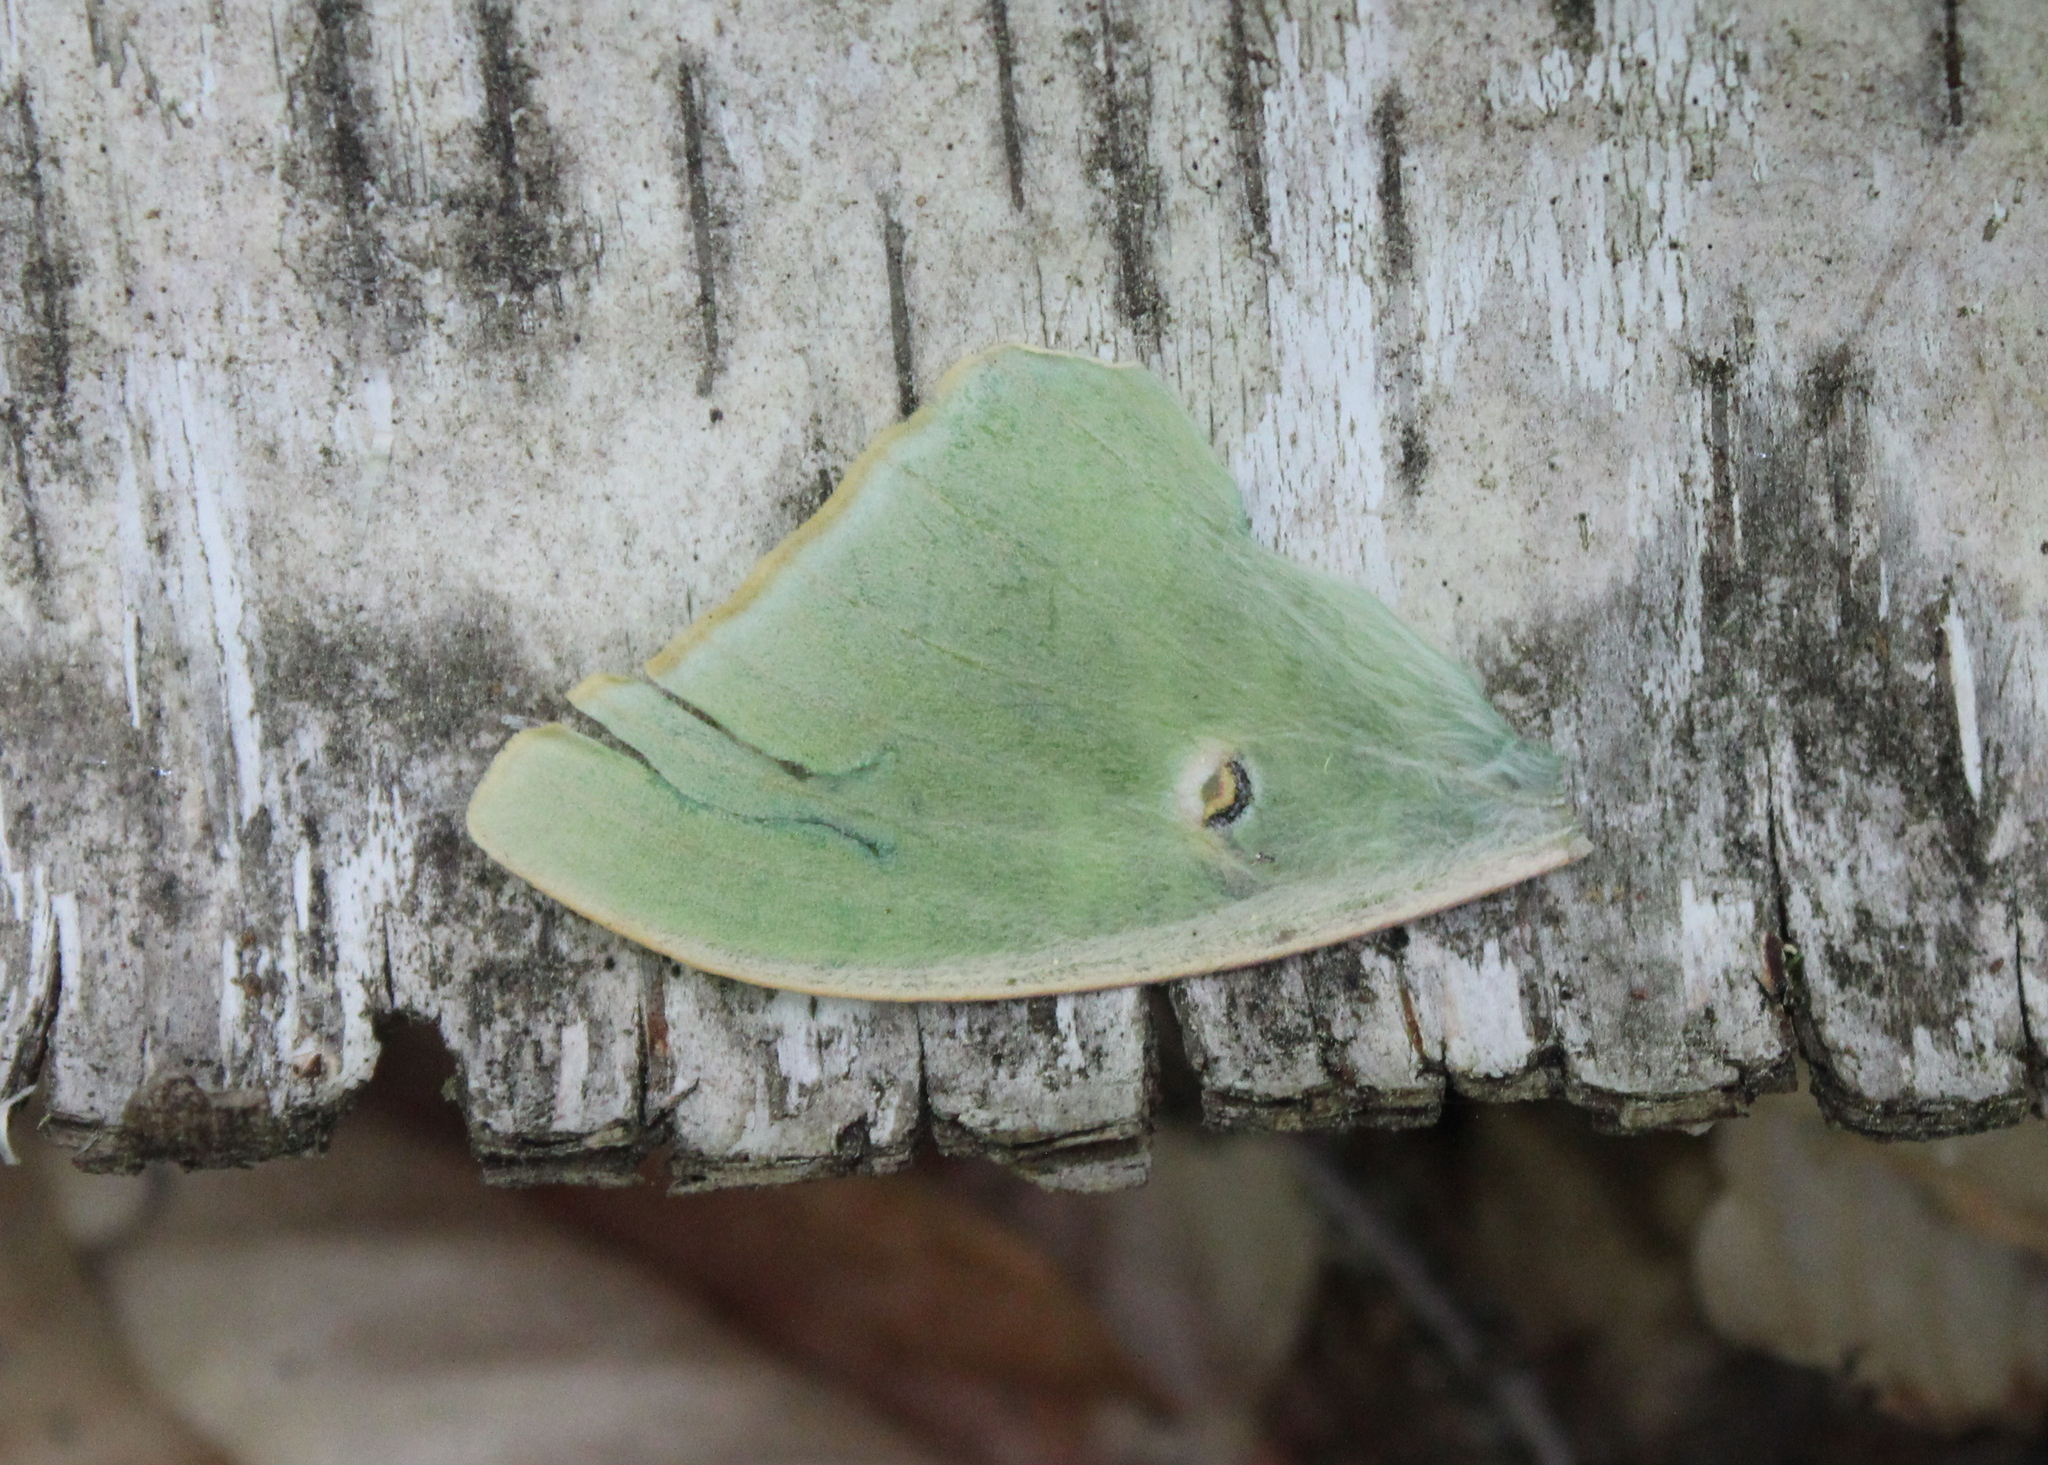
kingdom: Animalia
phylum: Arthropoda
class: Insecta
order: Lepidoptera
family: Saturniidae
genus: Actias
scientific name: Actias luna
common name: Luna moth
